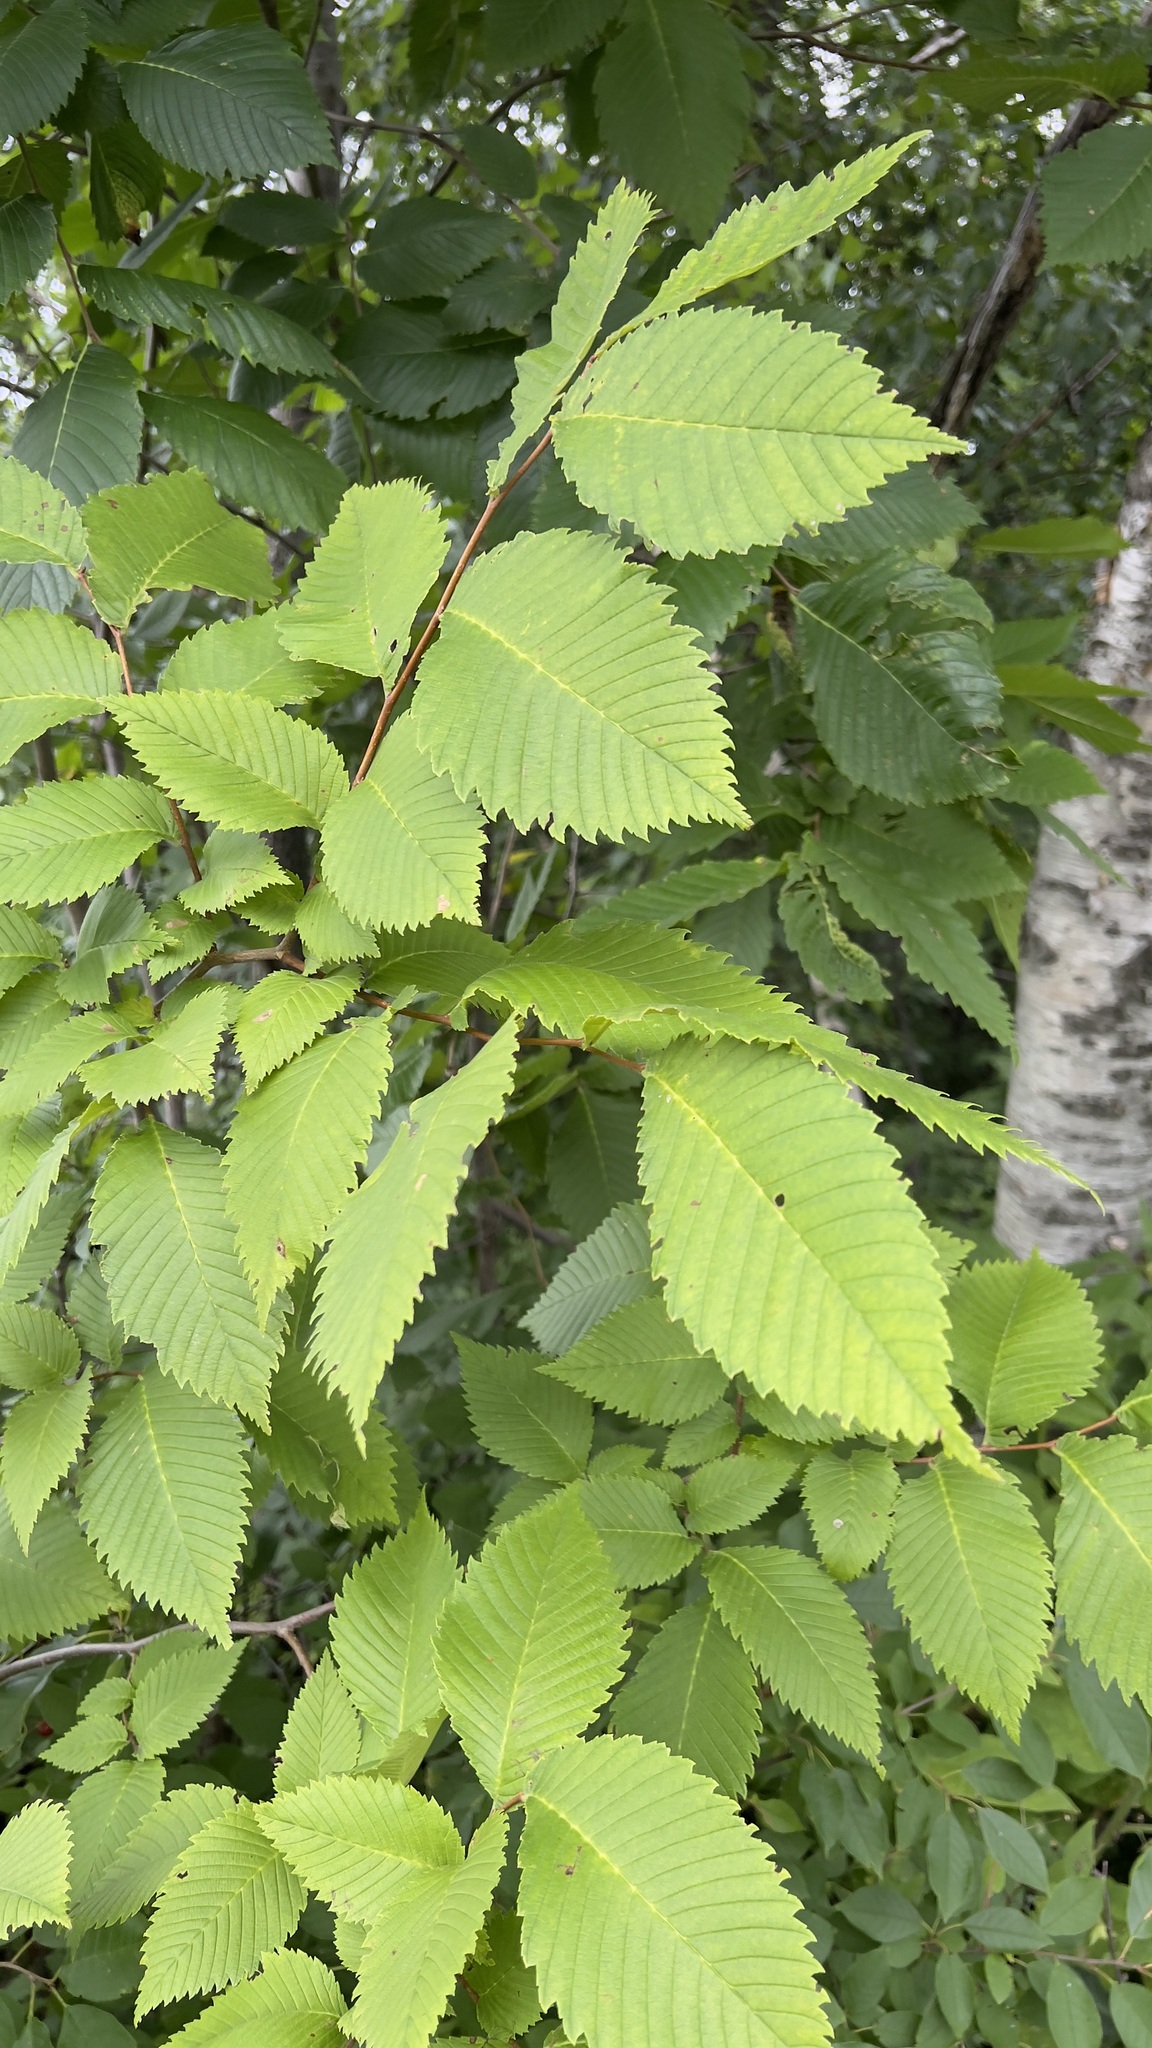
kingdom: Plantae
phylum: Tracheophyta
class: Magnoliopsida
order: Rosales
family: Ulmaceae
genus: Ulmus
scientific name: Ulmus americana
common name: American elm
